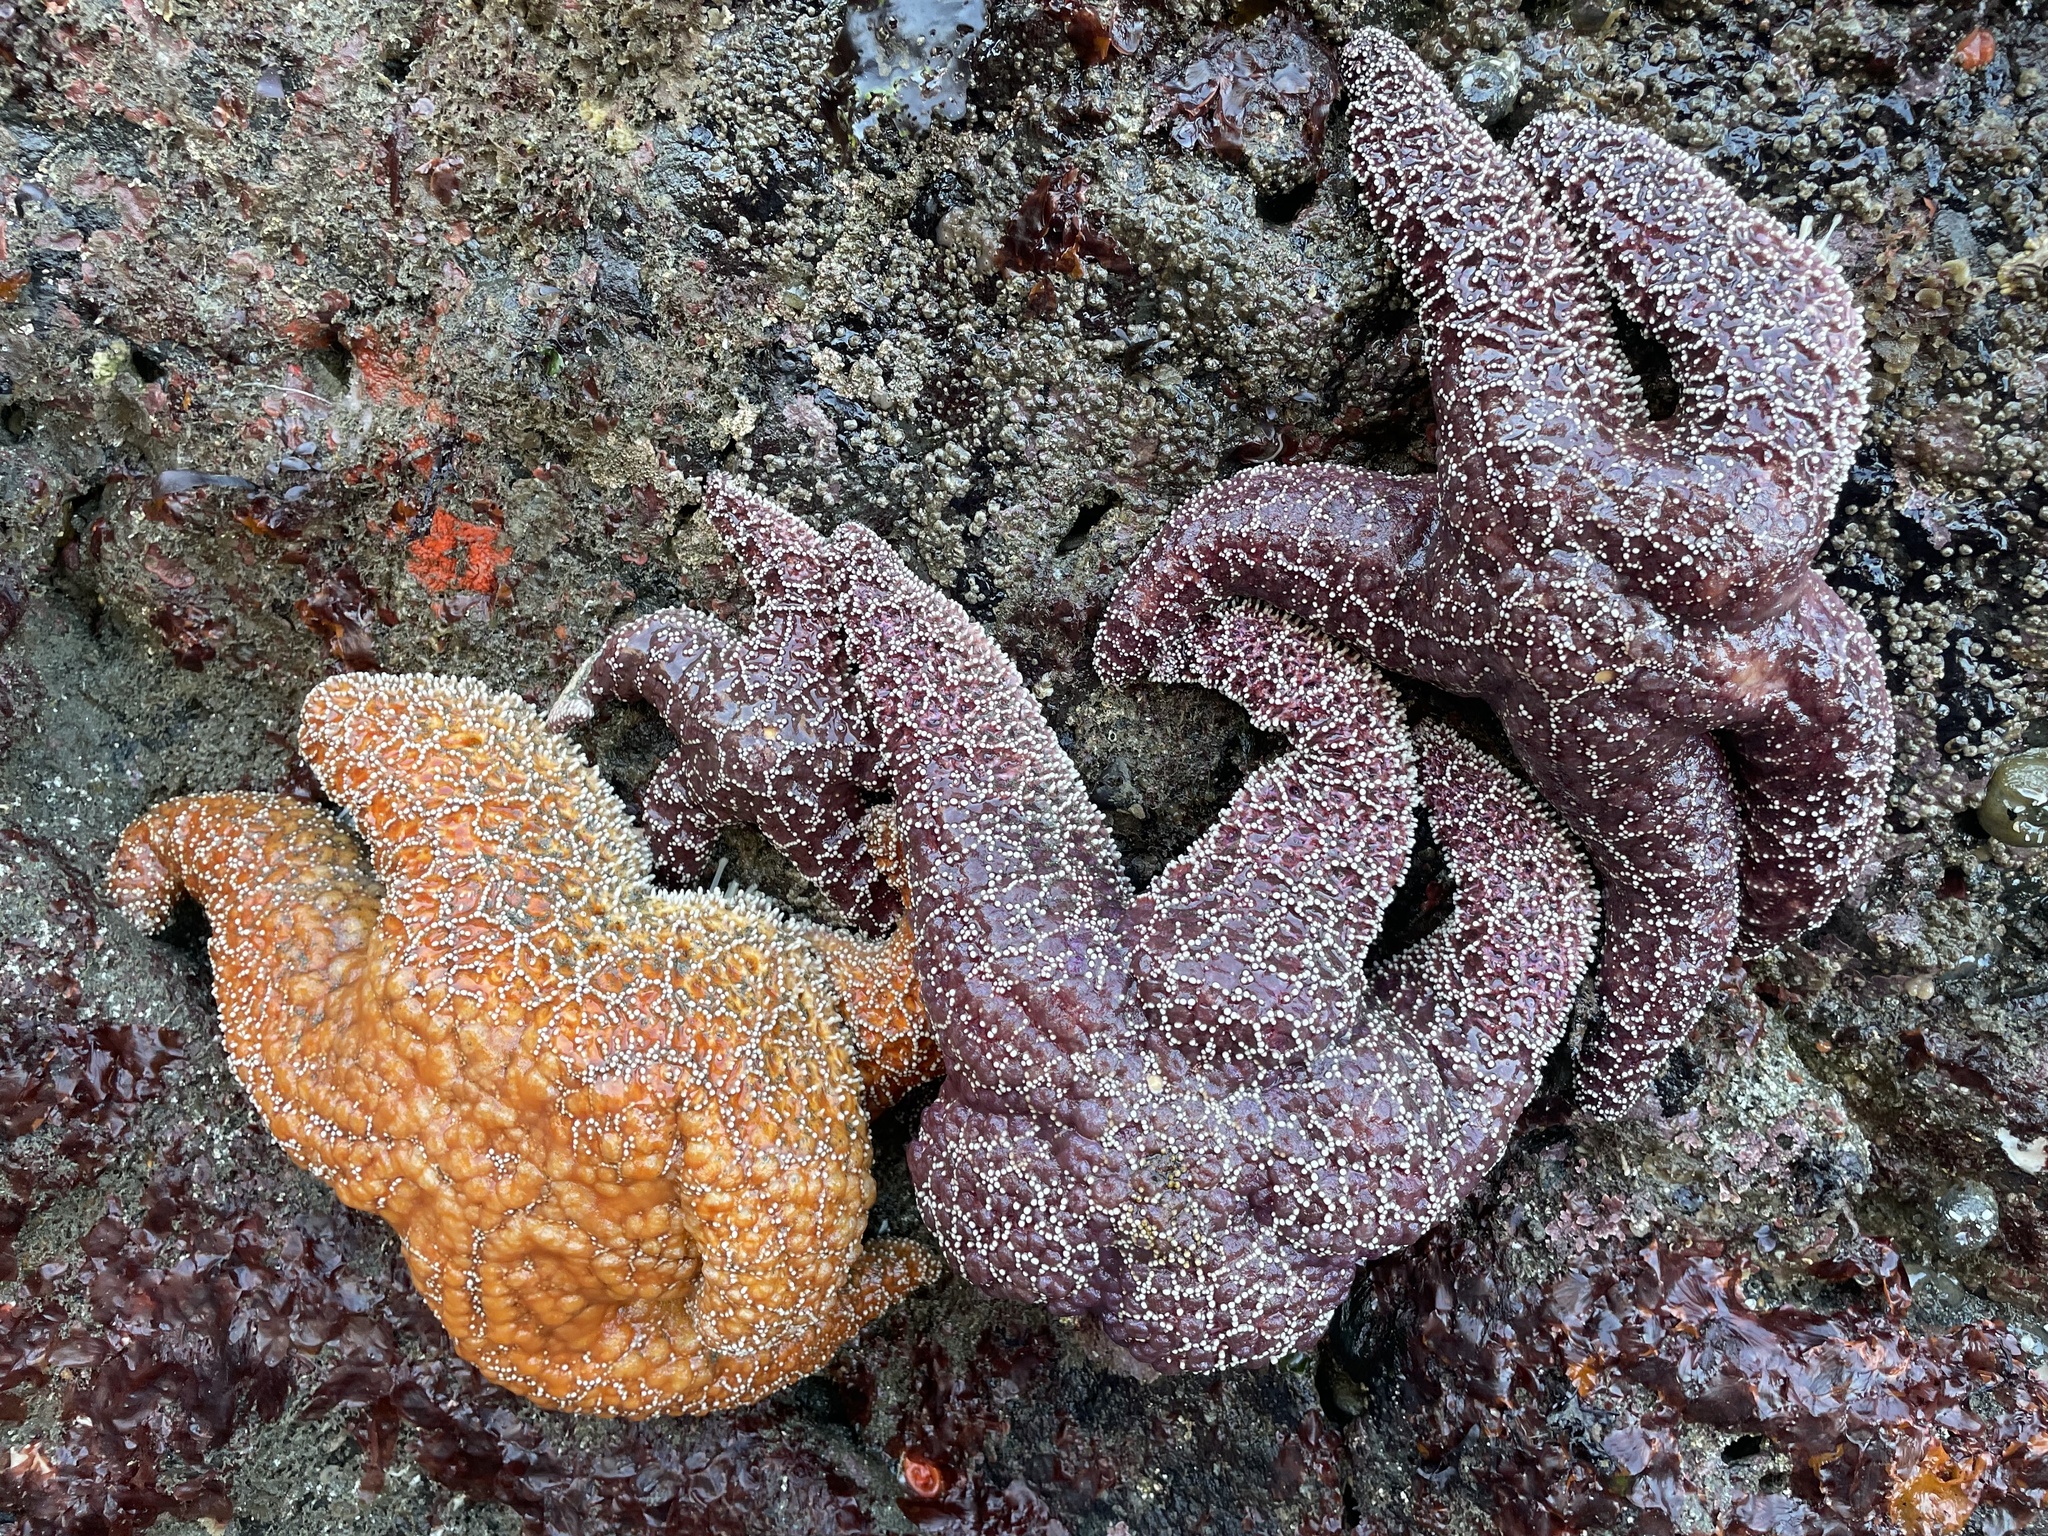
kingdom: Animalia
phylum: Echinodermata
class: Asteroidea
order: Forcipulatida
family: Asteriidae
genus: Pisaster
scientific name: Pisaster ochraceus
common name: Ochre stars
